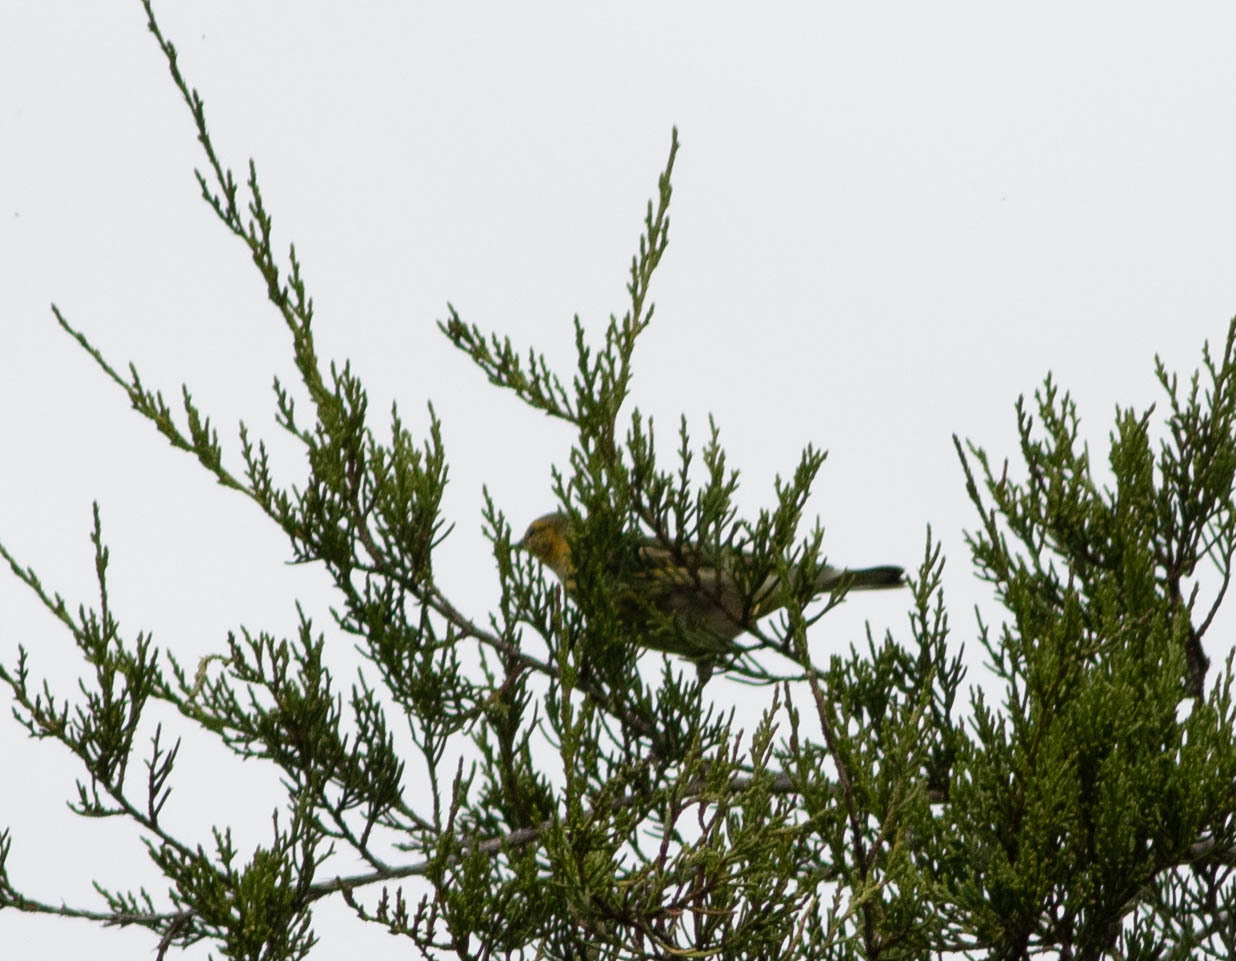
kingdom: Animalia
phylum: Chordata
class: Aves
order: Passeriformes
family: Parulidae
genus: Setophaga
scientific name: Setophaga tigrina
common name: Cape may warbler
